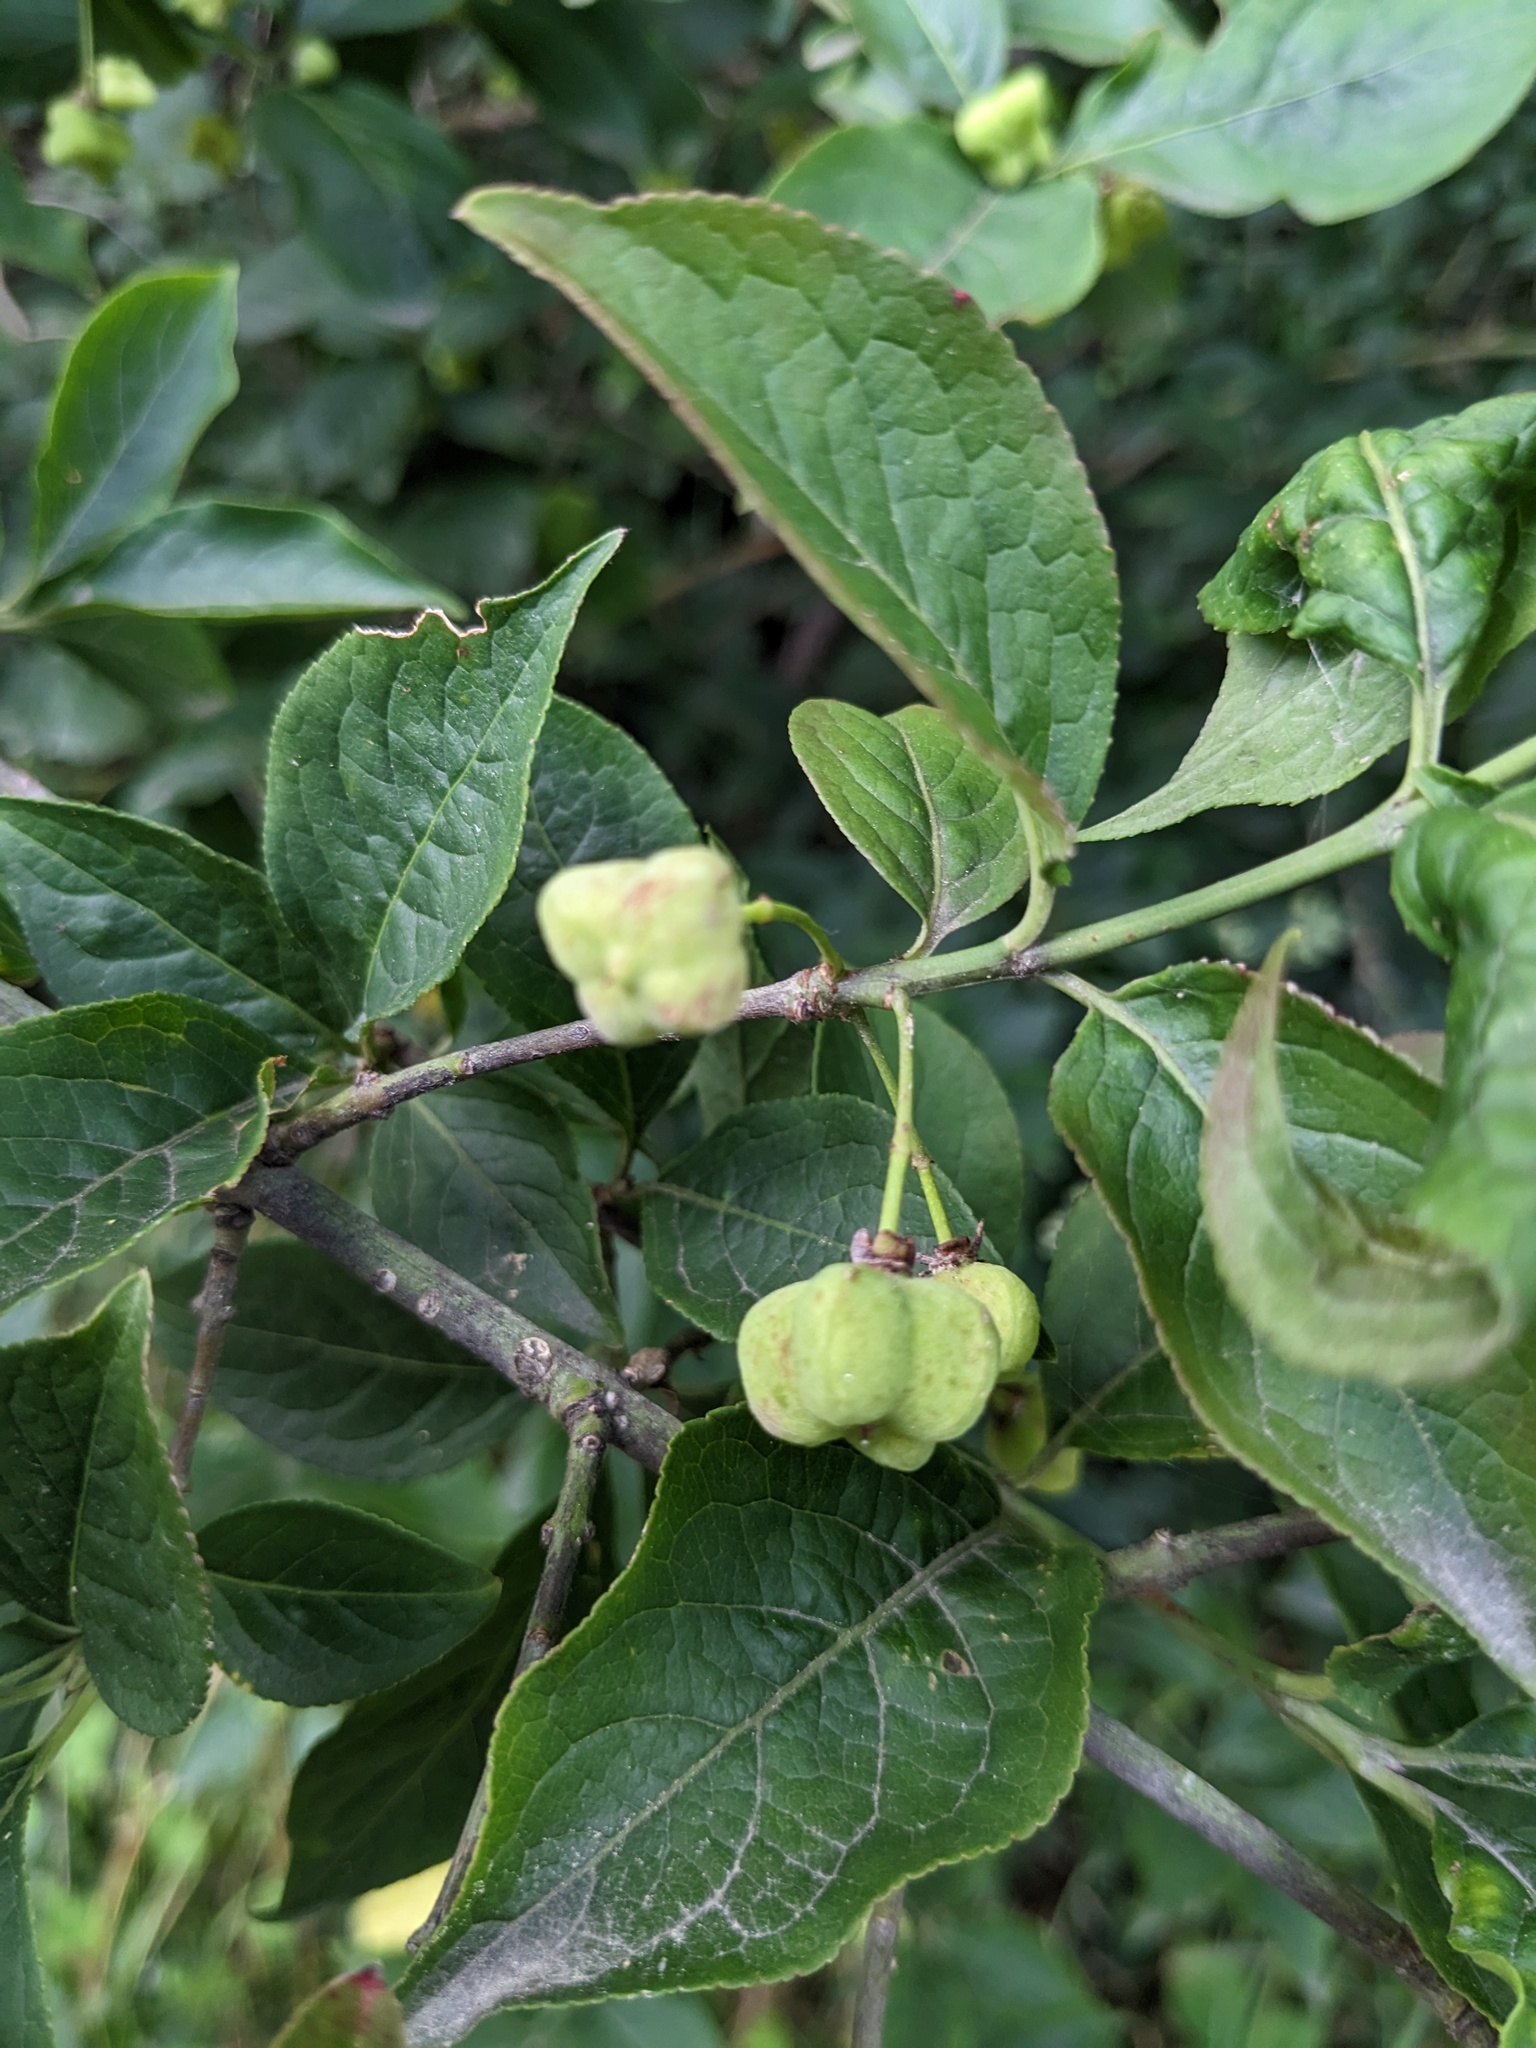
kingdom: Plantae
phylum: Tracheophyta
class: Magnoliopsida
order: Celastrales
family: Celastraceae
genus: Euonymus
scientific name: Euonymus europaeus
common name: Spindle
